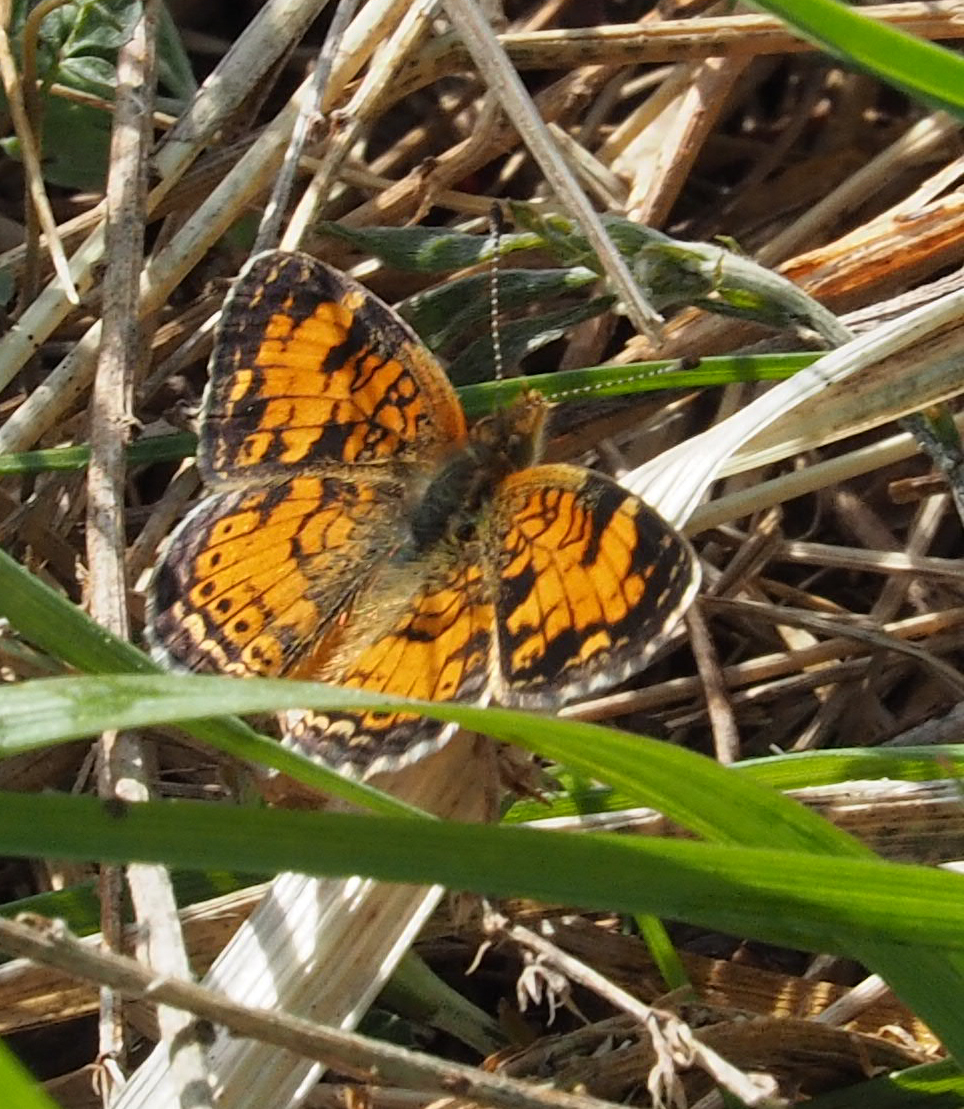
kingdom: Animalia
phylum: Arthropoda
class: Insecta
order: Lepidoptera
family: Nymphalidae
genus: Phyciodes
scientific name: Phyciodes tharos
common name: Pearl crescent
